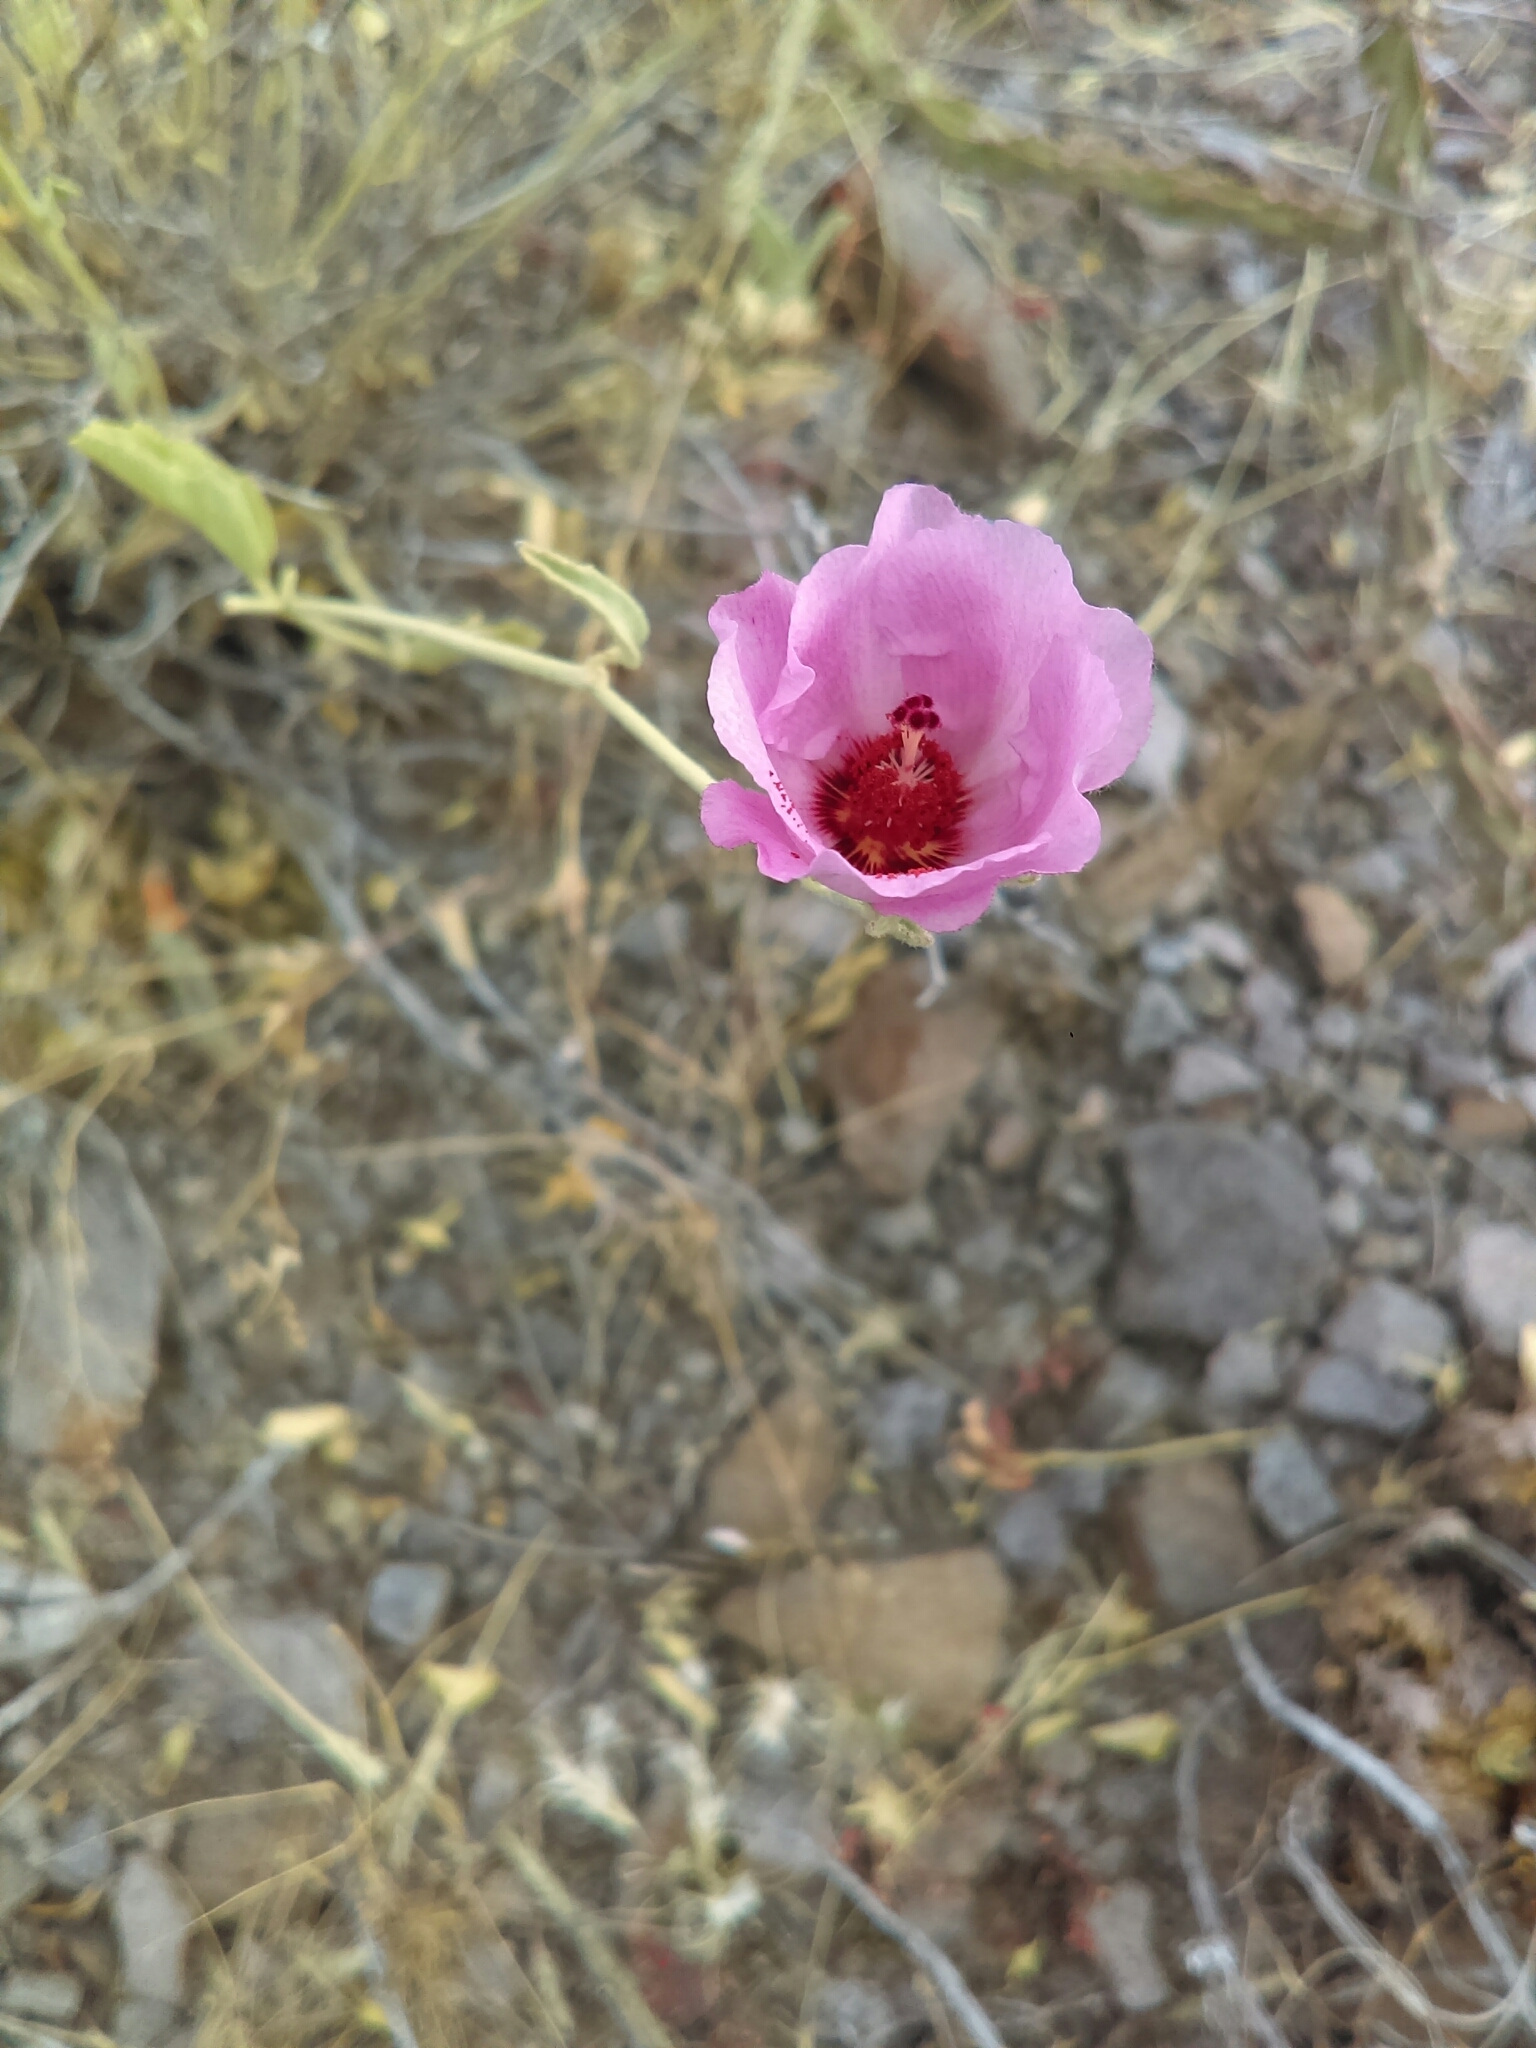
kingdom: Plantae
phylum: Tracheophyta
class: Magnoliopsida
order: Malvales
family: Malvaceae
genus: Hibiscus
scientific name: Hibiscus denudatus
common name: Paleface
